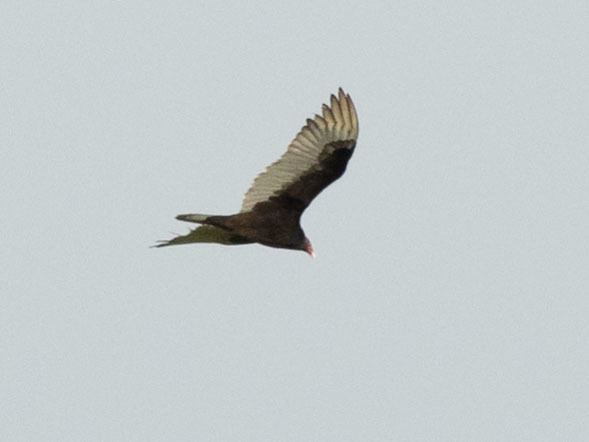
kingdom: Animalia
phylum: Chordata
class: Aves
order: Accipitriformes
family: Cathartidae
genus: Cathartes
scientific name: Cathartes aura
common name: Turkey vulture
